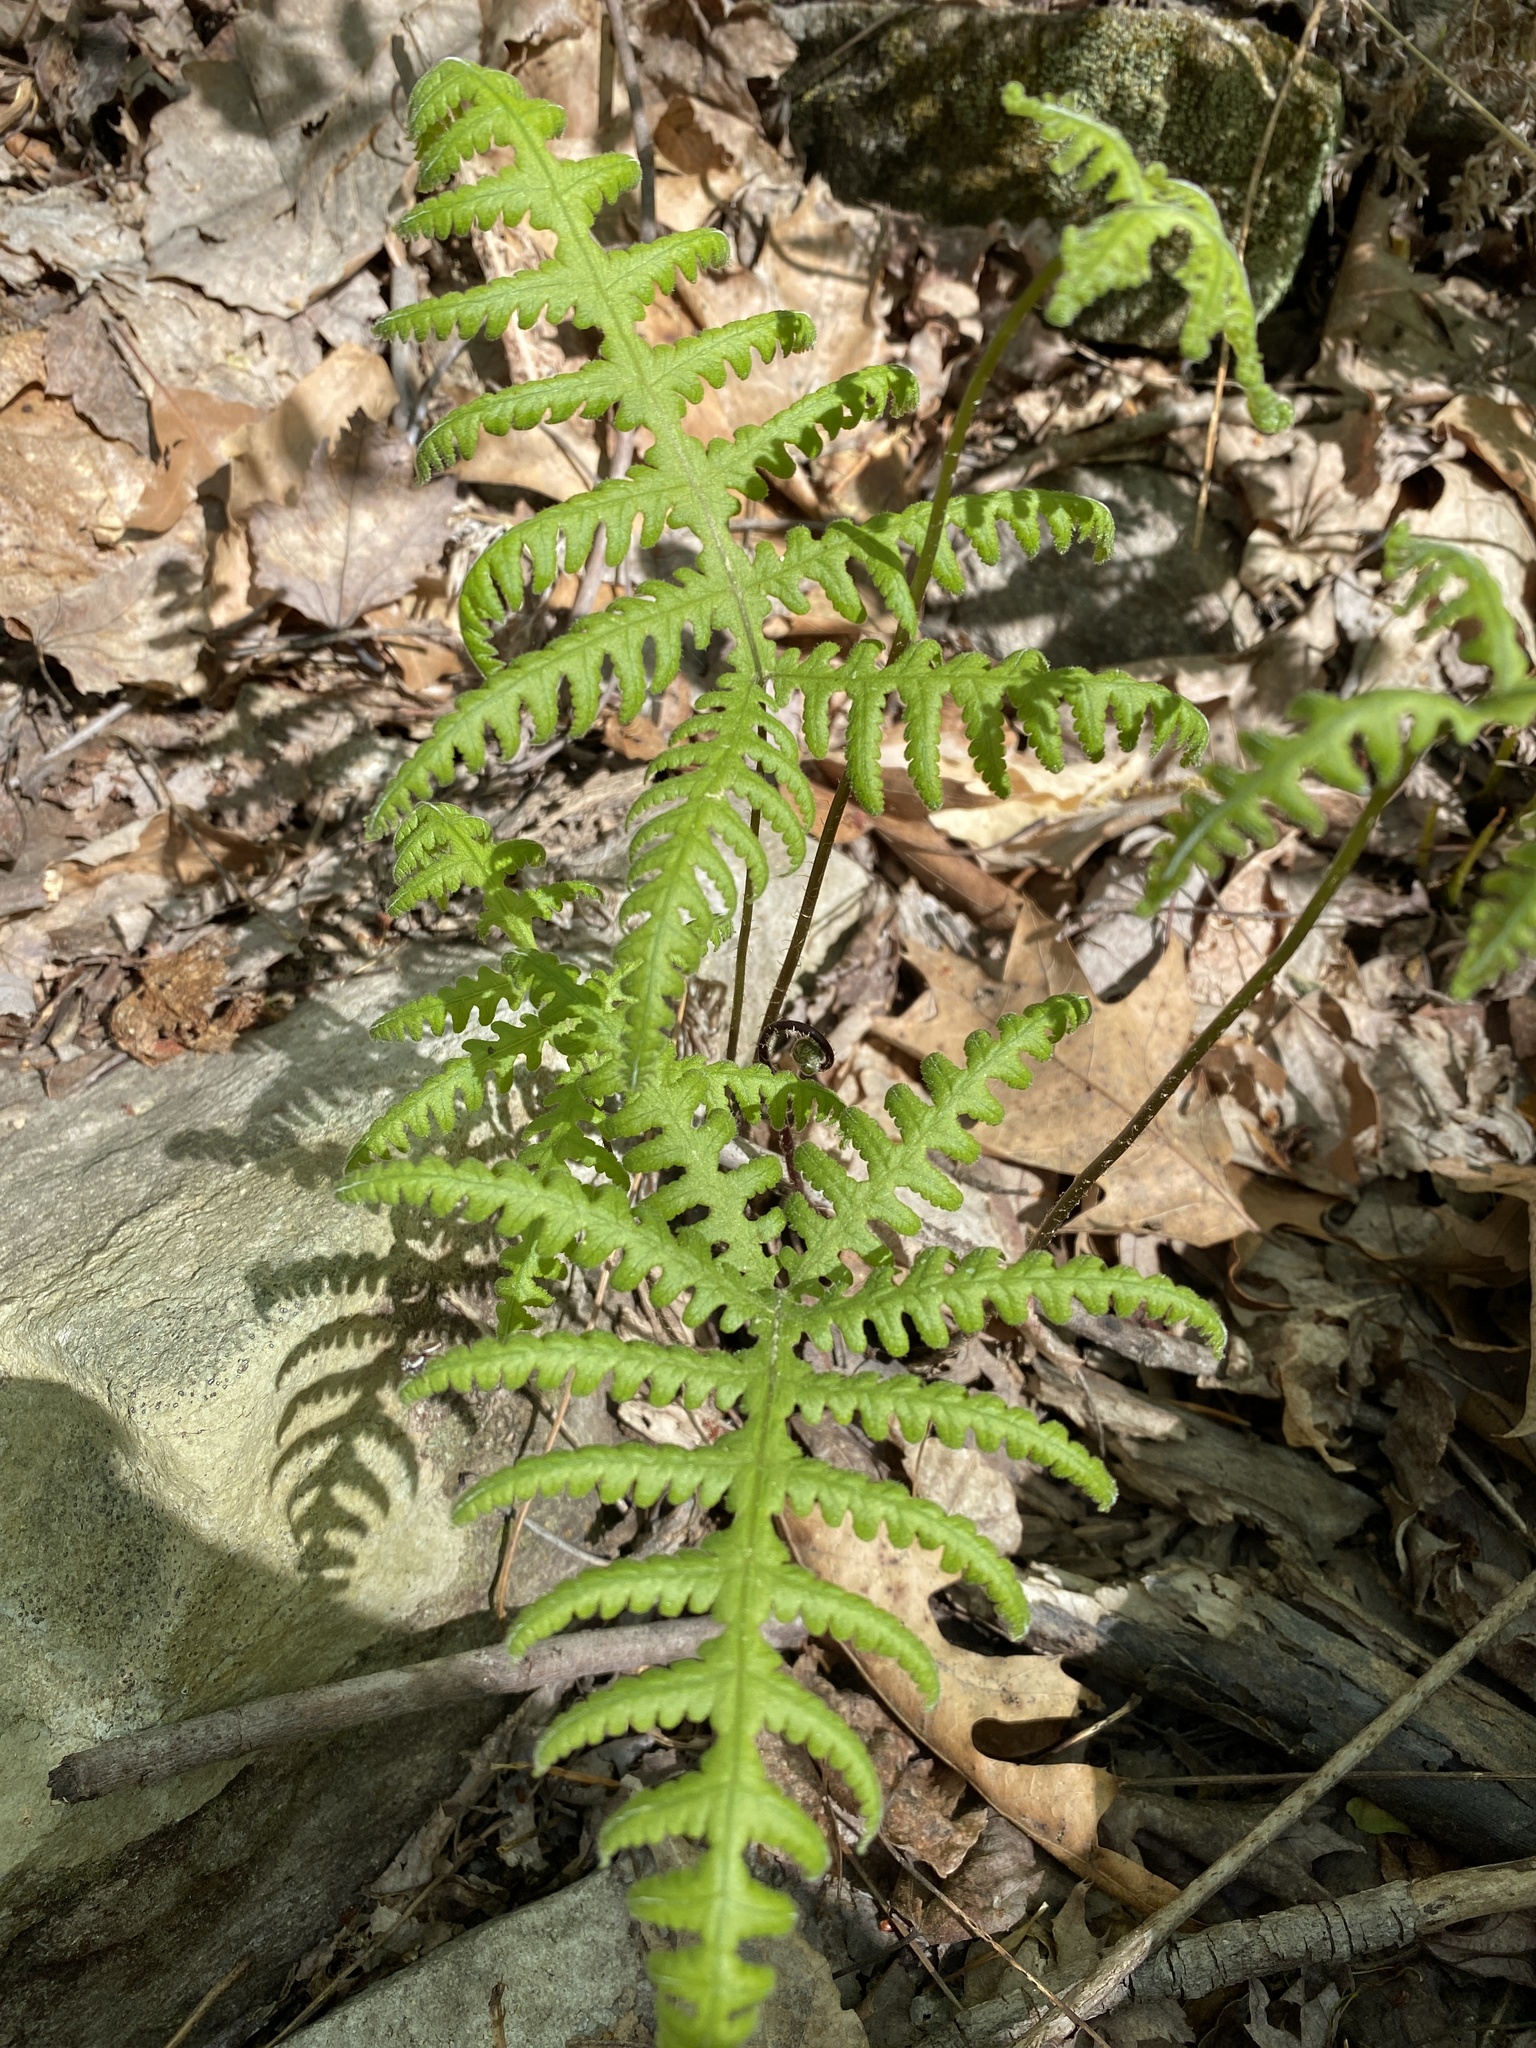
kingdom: Plantae
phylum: Tracheophyta
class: Polypodiopsida
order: Polypodiales
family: Thelypteridaceae
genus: Phegopteris
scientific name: Phegopteris hexagonoptera
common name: Broad beech fern
